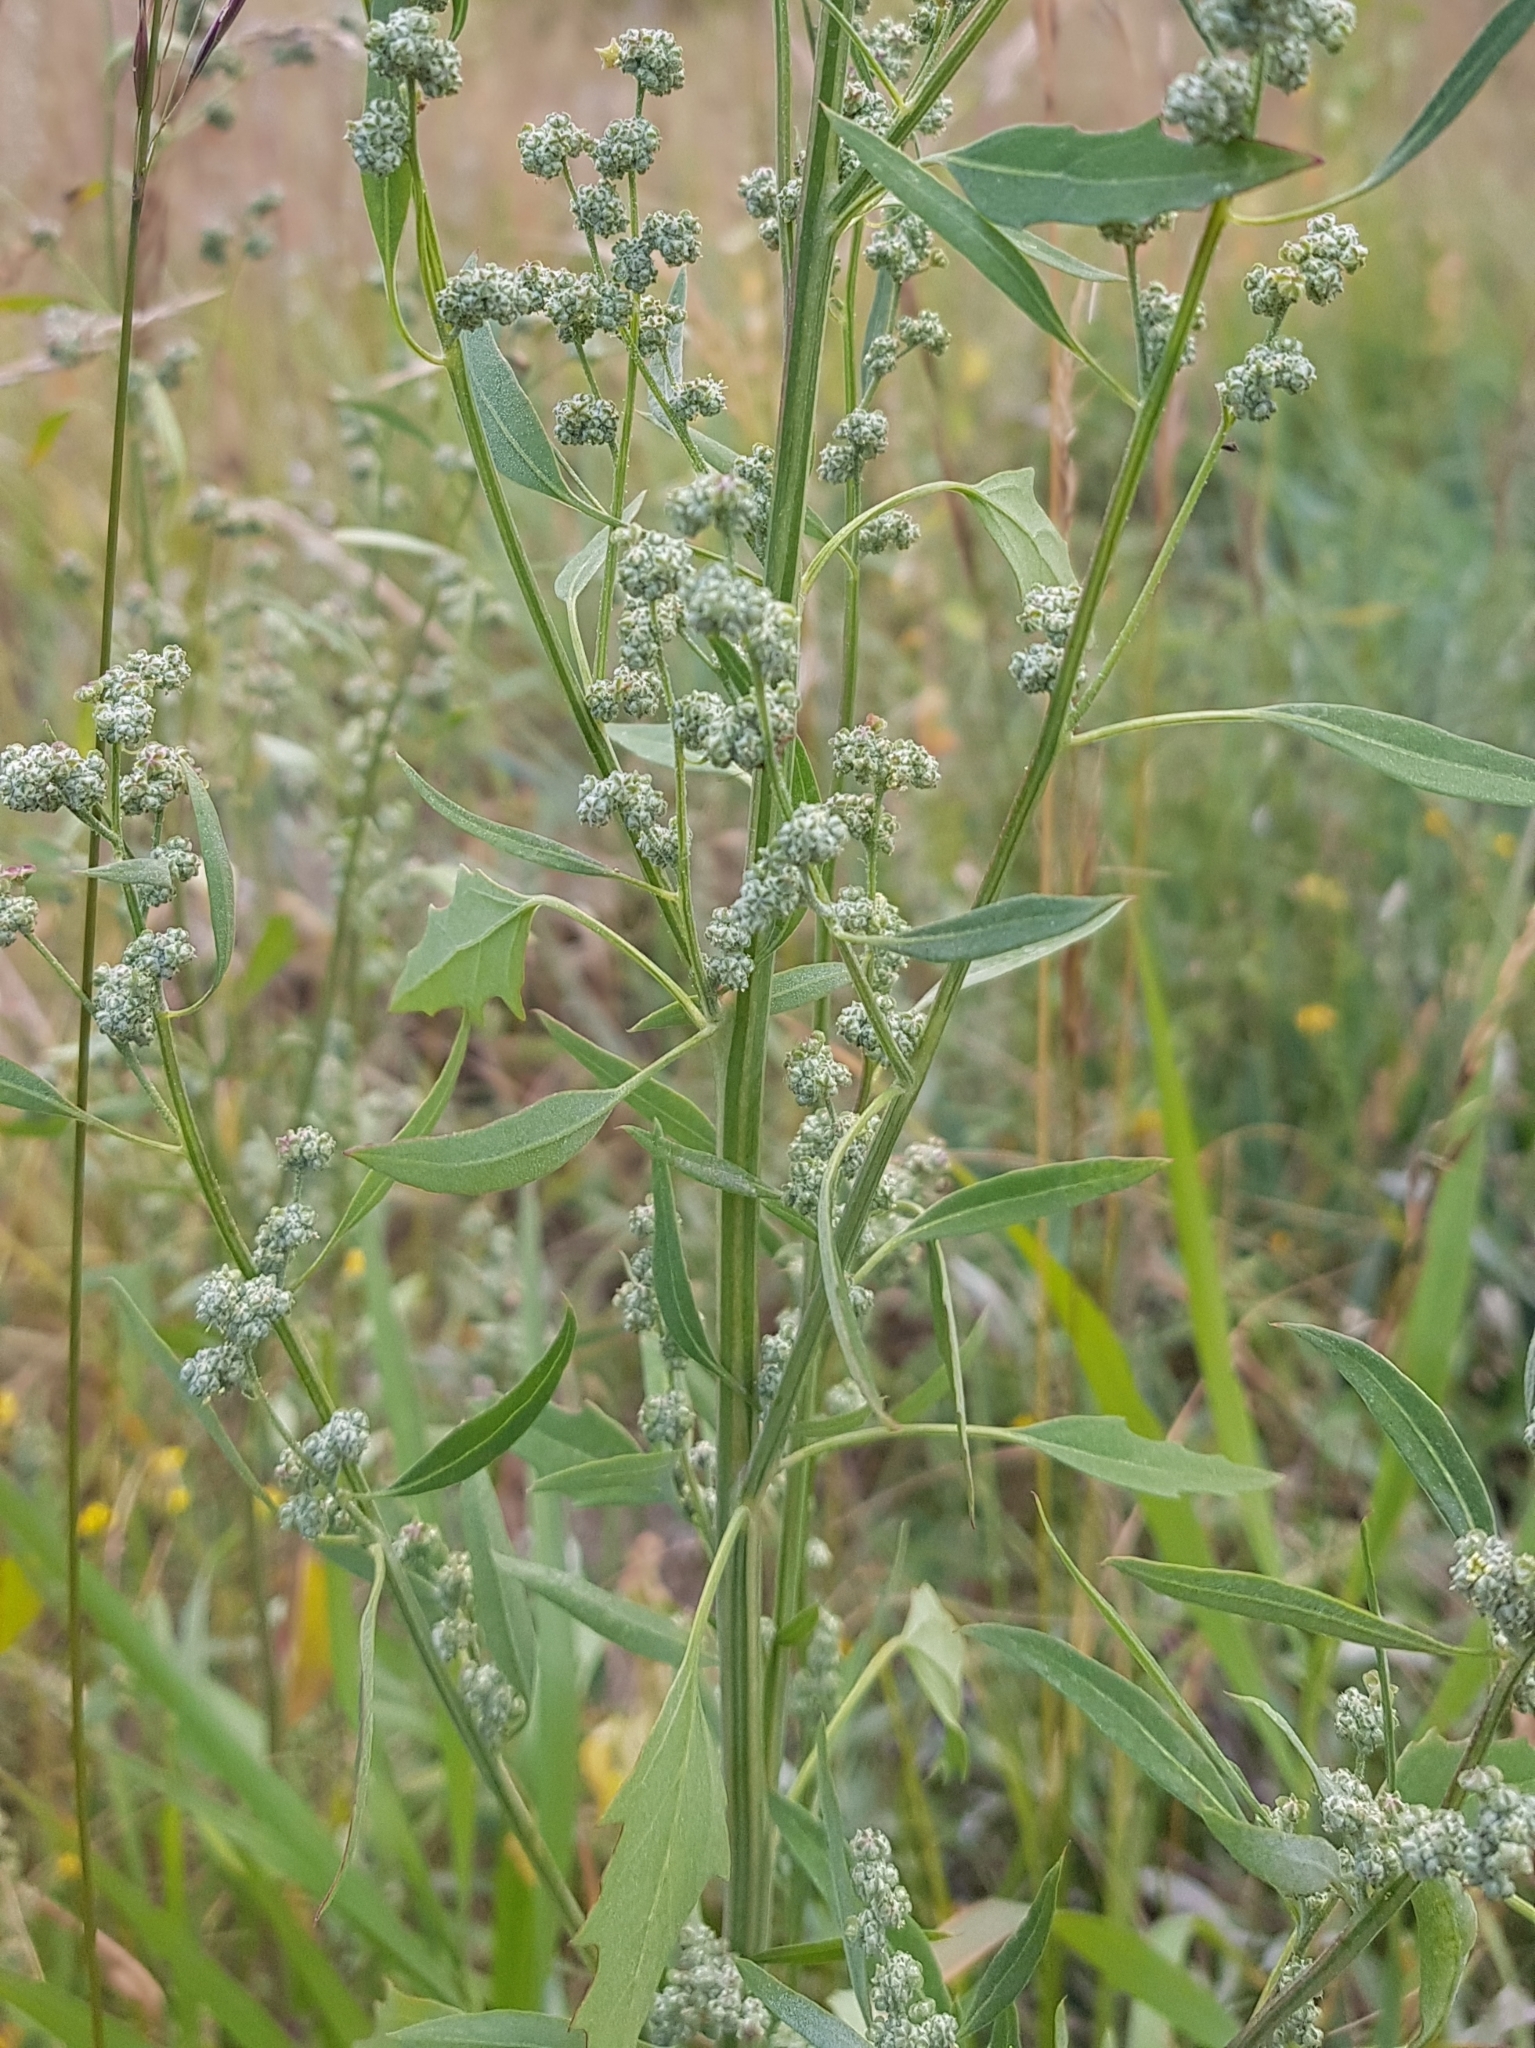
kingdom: Plantae
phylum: Tracheophyta
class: Magnoliopsida
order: Caryophyllales
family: Amaranthaceae
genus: Chenopodium
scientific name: Chenopodium album
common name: Fat-hen
